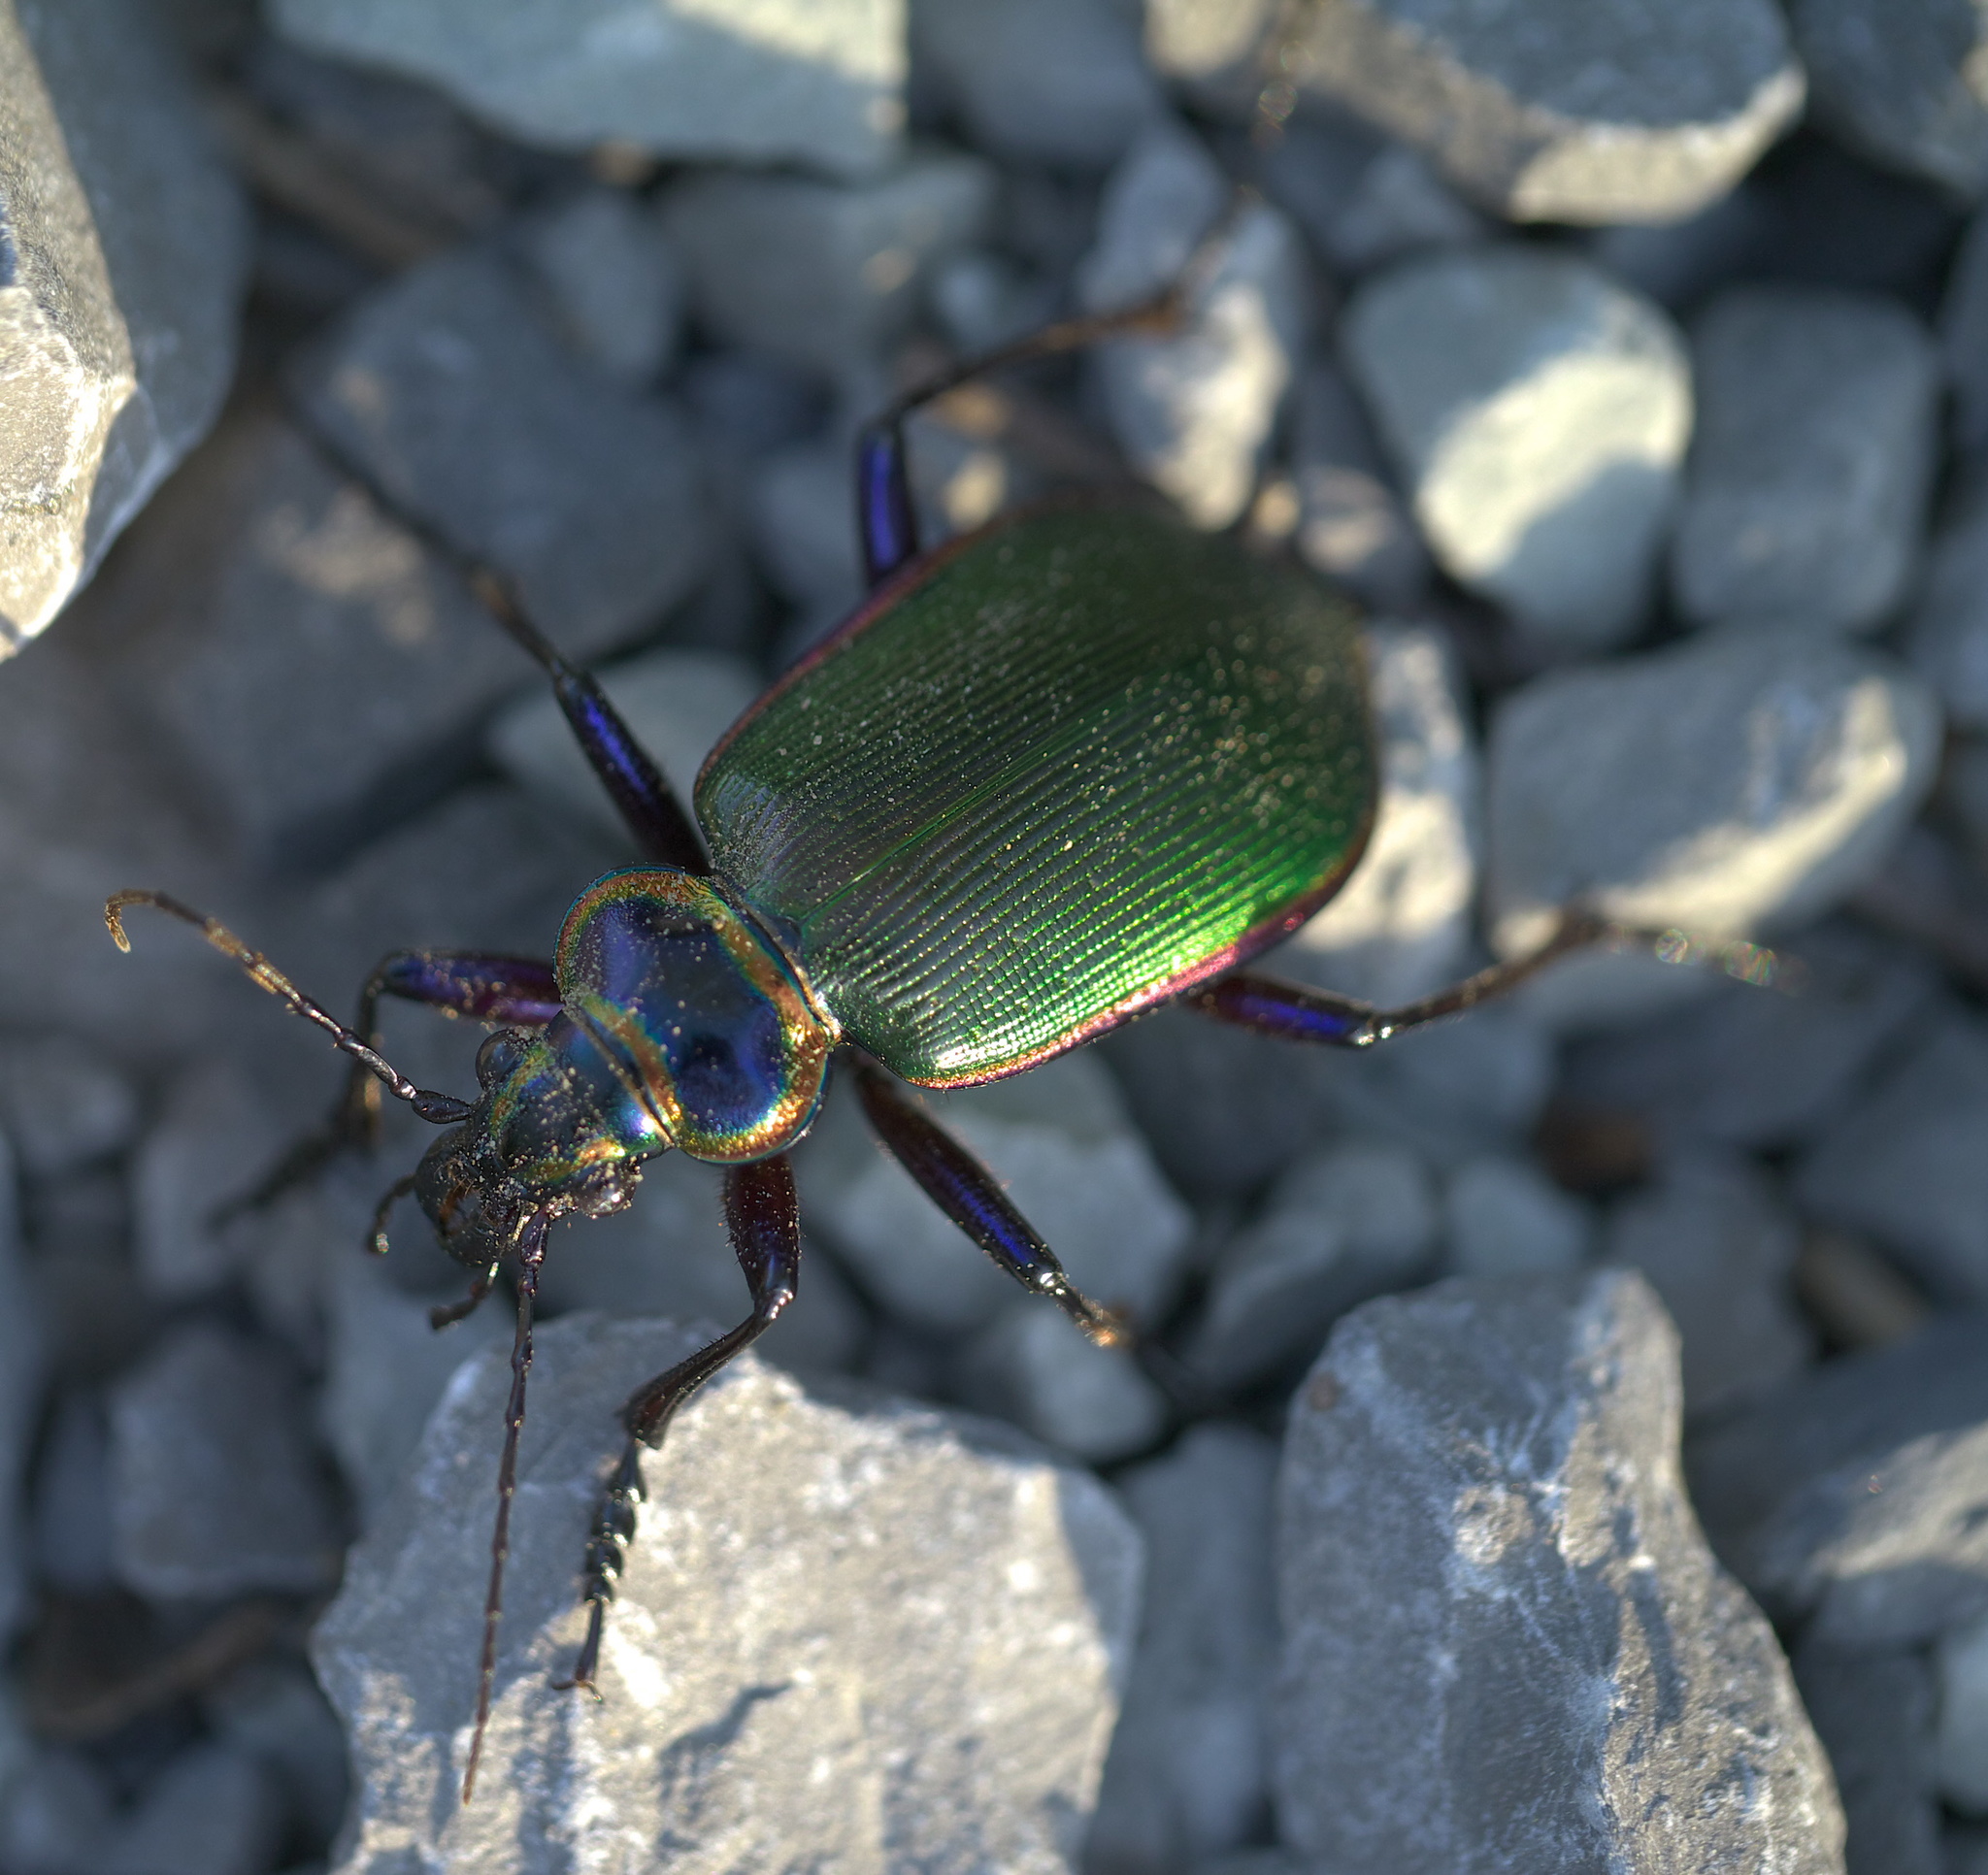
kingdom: Animalia
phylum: Arthropoda
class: Insecta
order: Coleoptera
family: Carabidae
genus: Calosoma
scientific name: Calosoma scrutator
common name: Fiery searcher beetle
